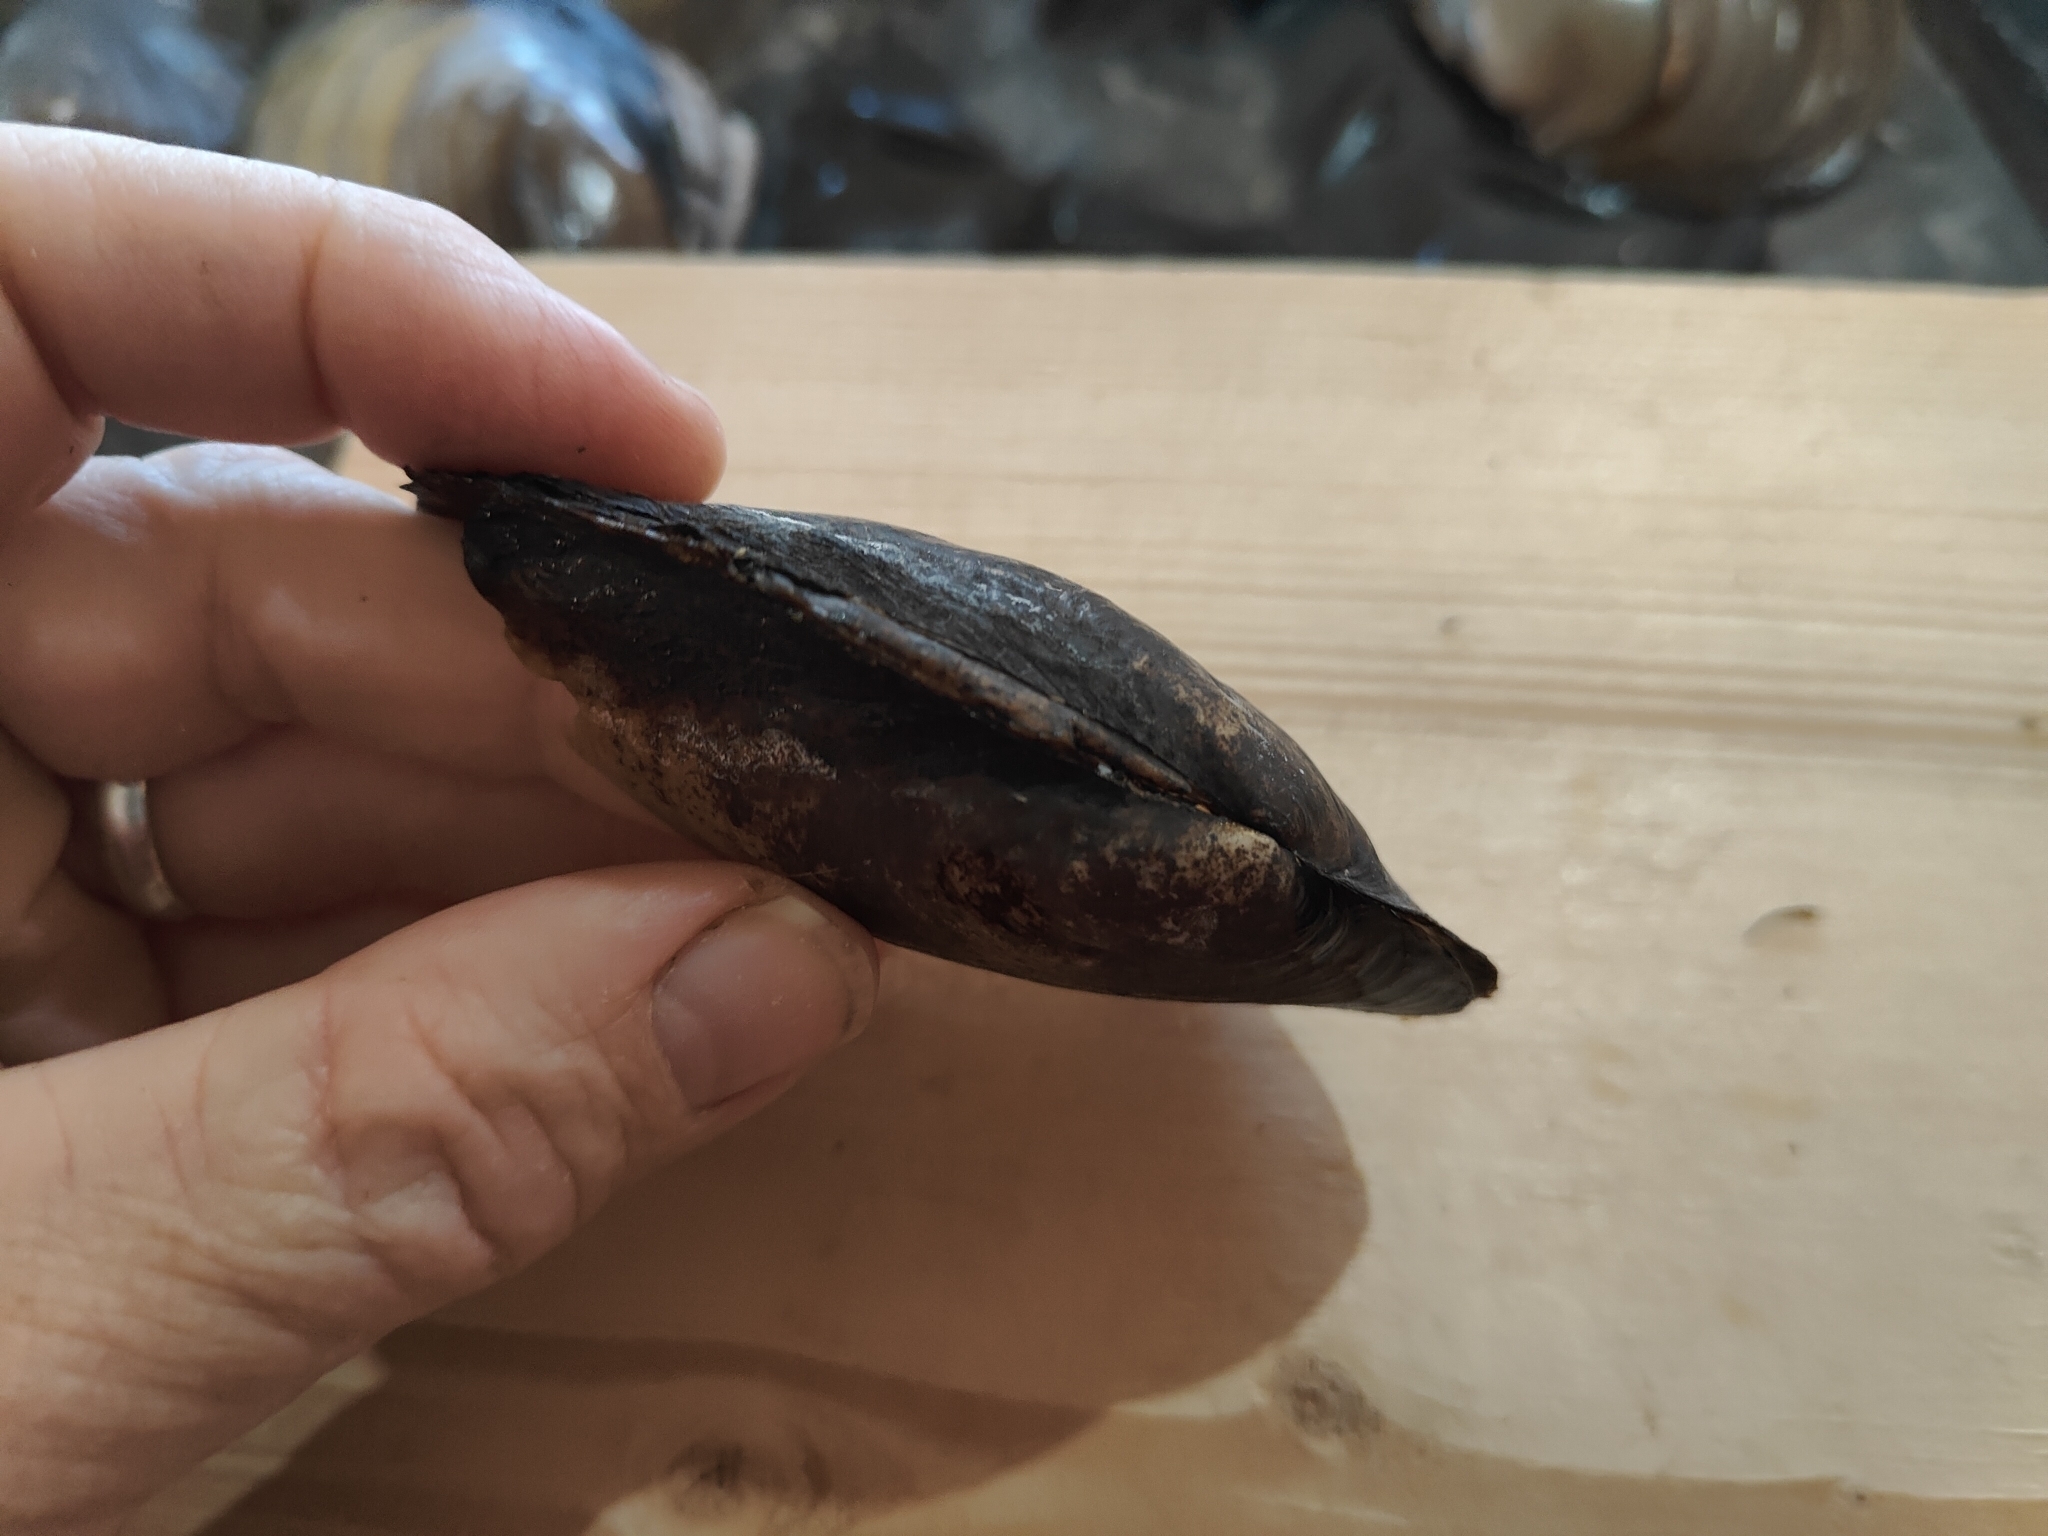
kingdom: Animalia
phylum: Mollusca
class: Bivalvia
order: Unionida
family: Unionidae
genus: Potamilus
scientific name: Potamilus fragilis
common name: Fragile papershell
